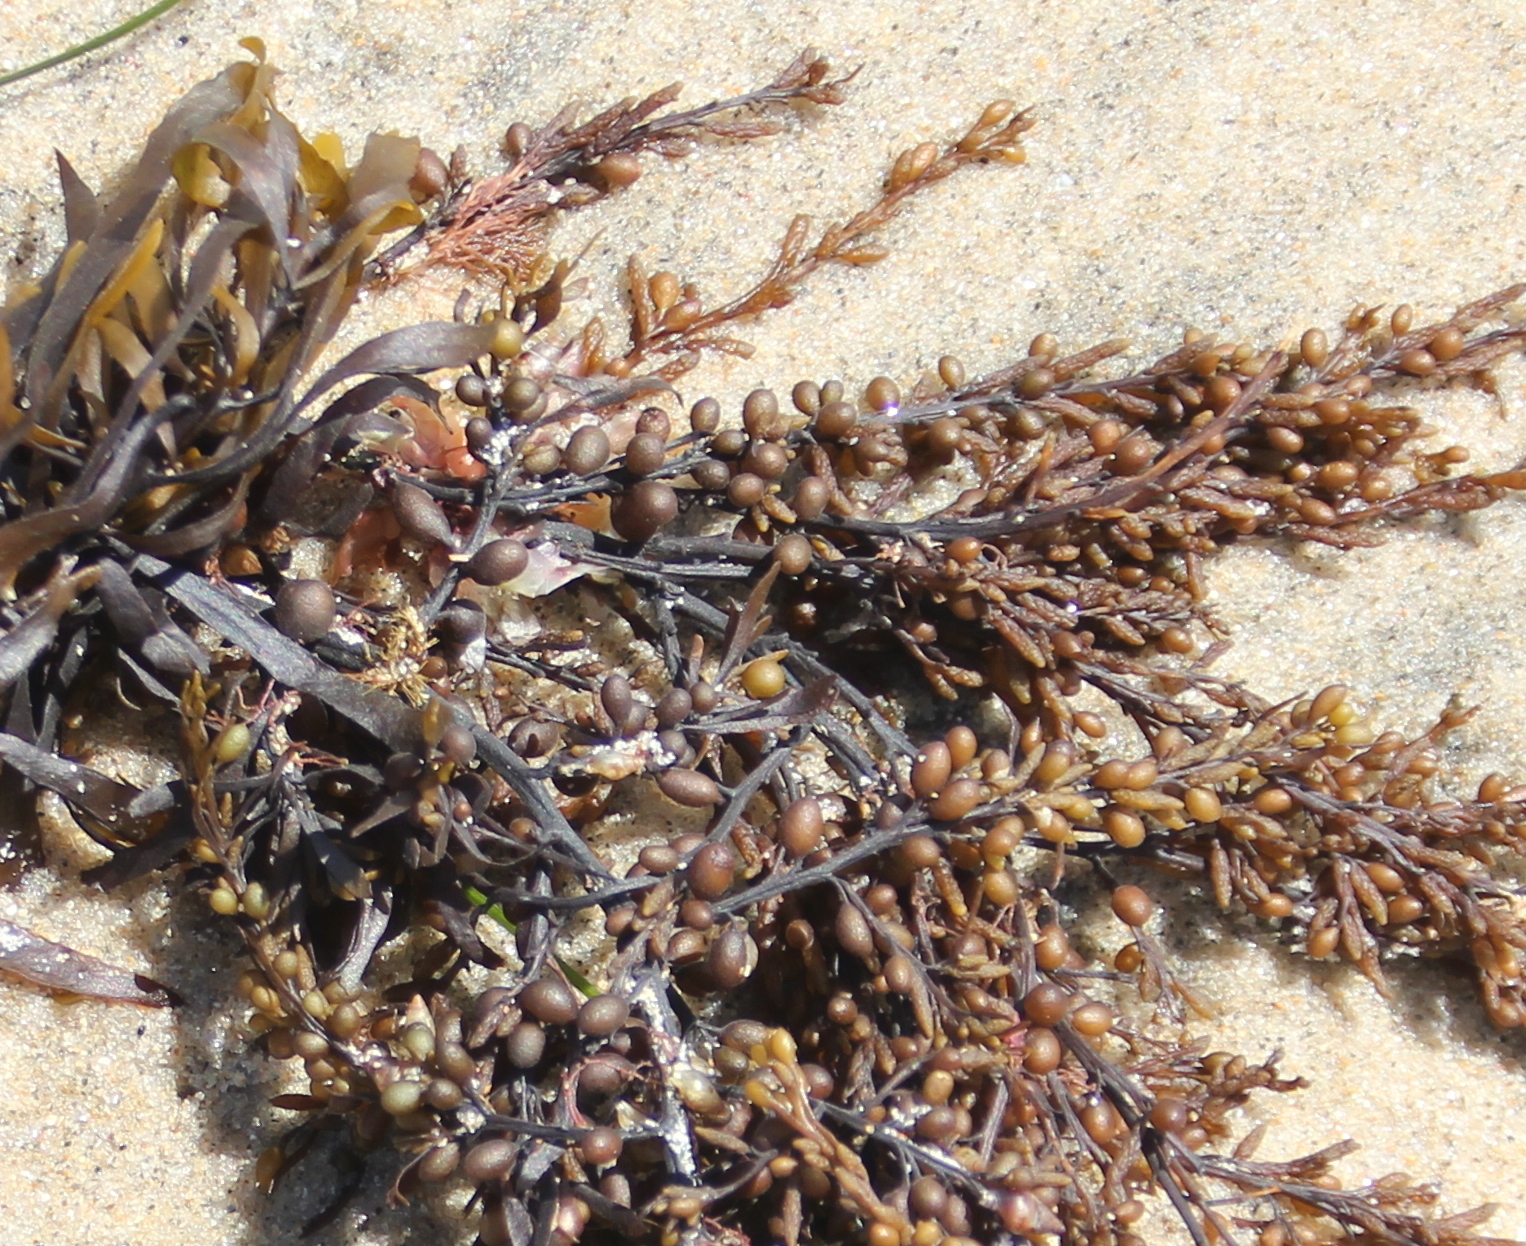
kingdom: Chromista
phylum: Ochrophyta
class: Phaeophyceae
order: Fucales
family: Sargassaceae
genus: Sargassum
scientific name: Sargassum muticum
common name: Japweed
